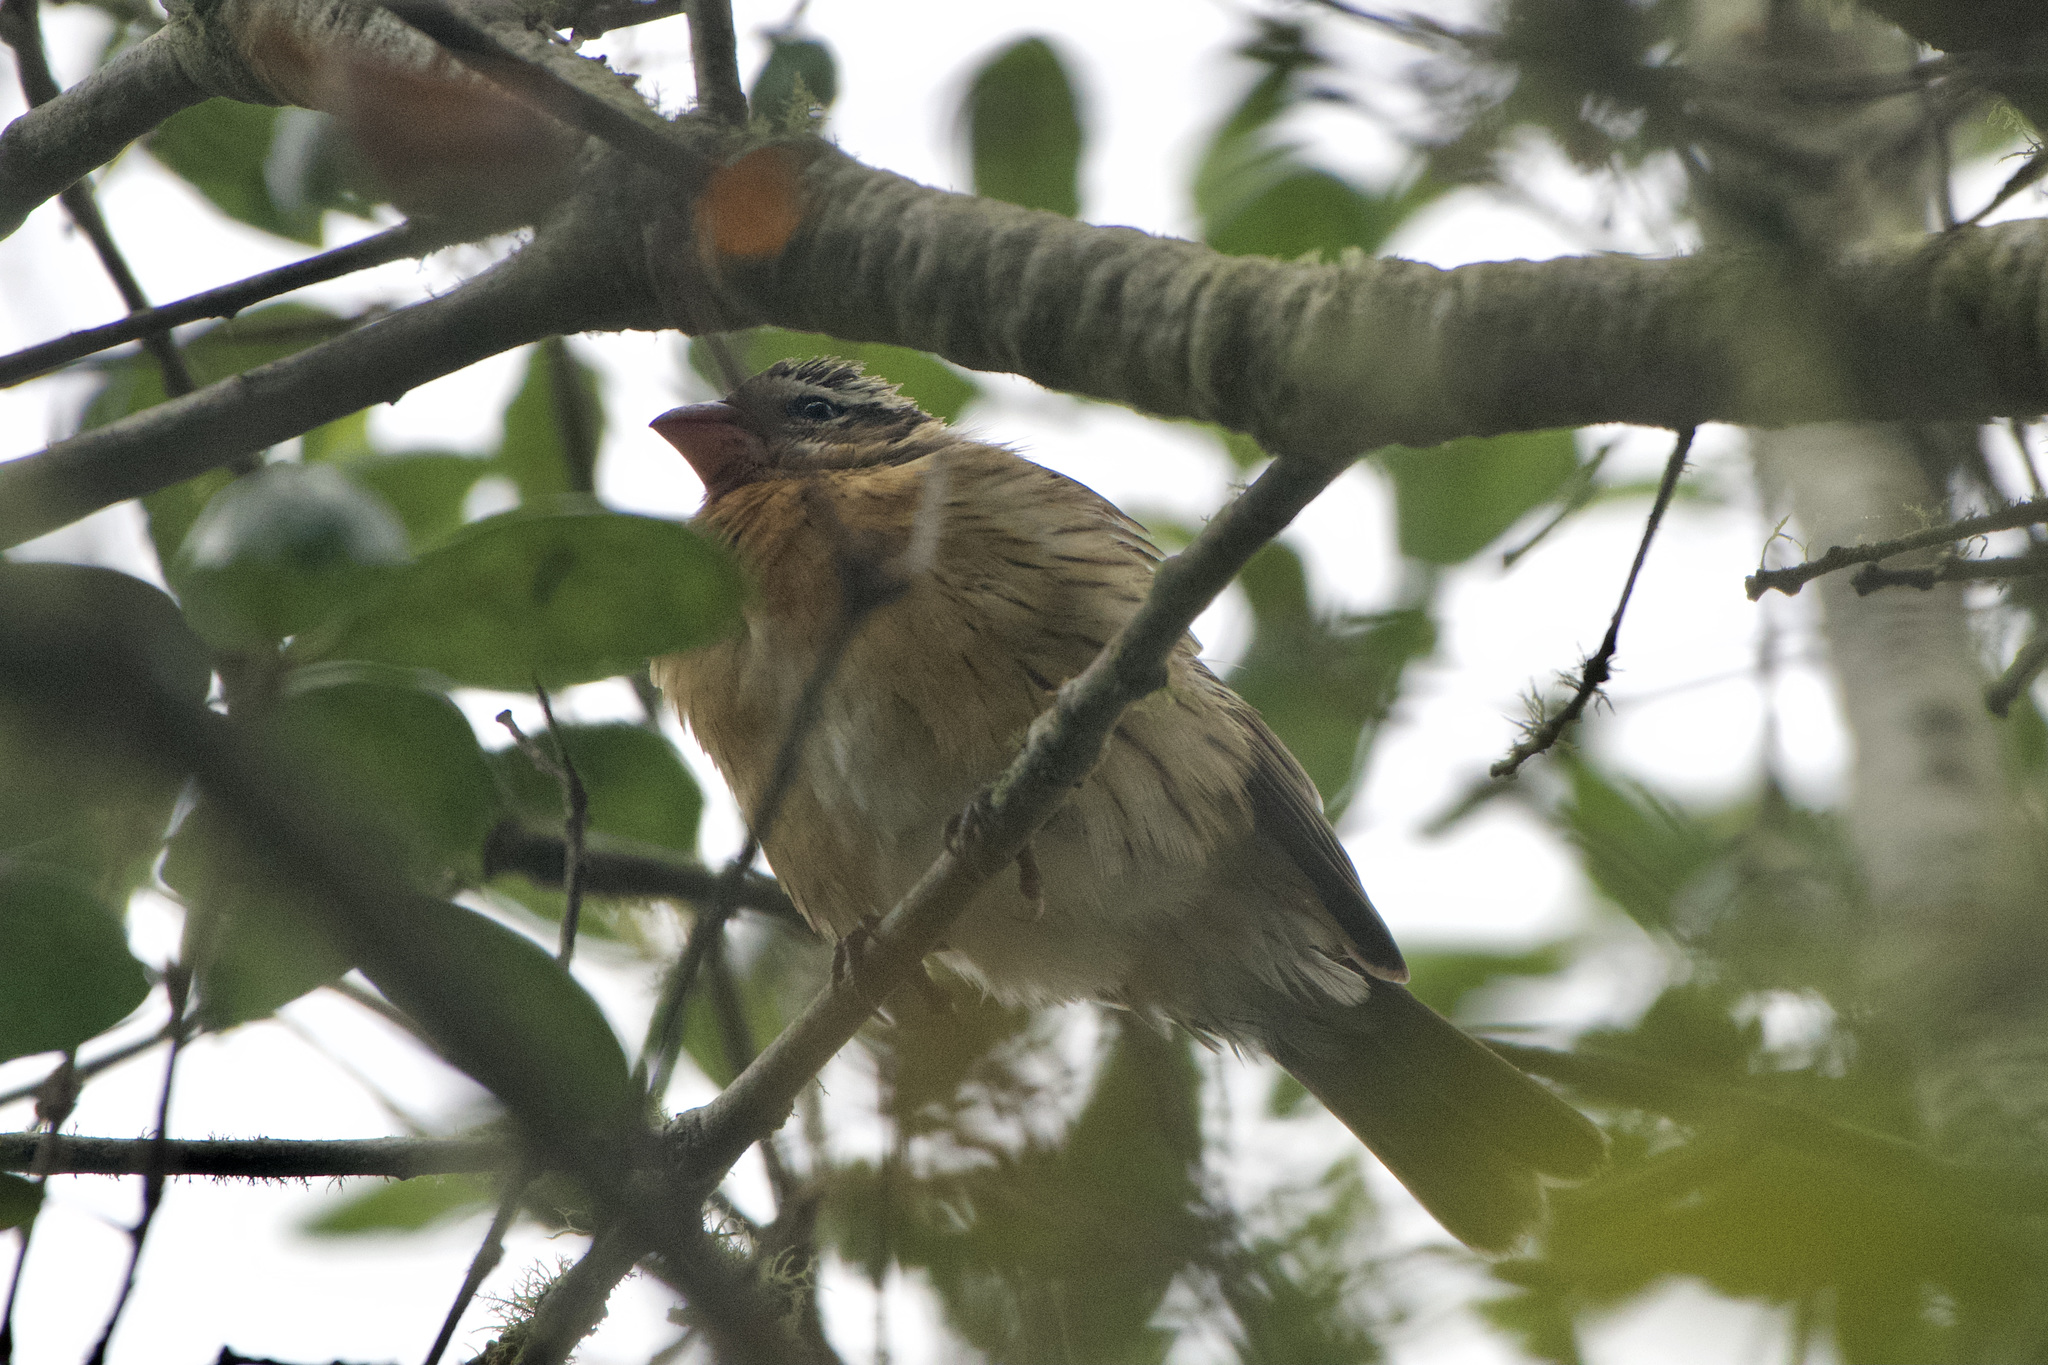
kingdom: Animalia
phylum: Chordata
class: Aves
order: Passeriformes
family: Cardinalidae
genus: Pheucticus
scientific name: Pheucticus melanocephalus
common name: Black-headed grosbeak
